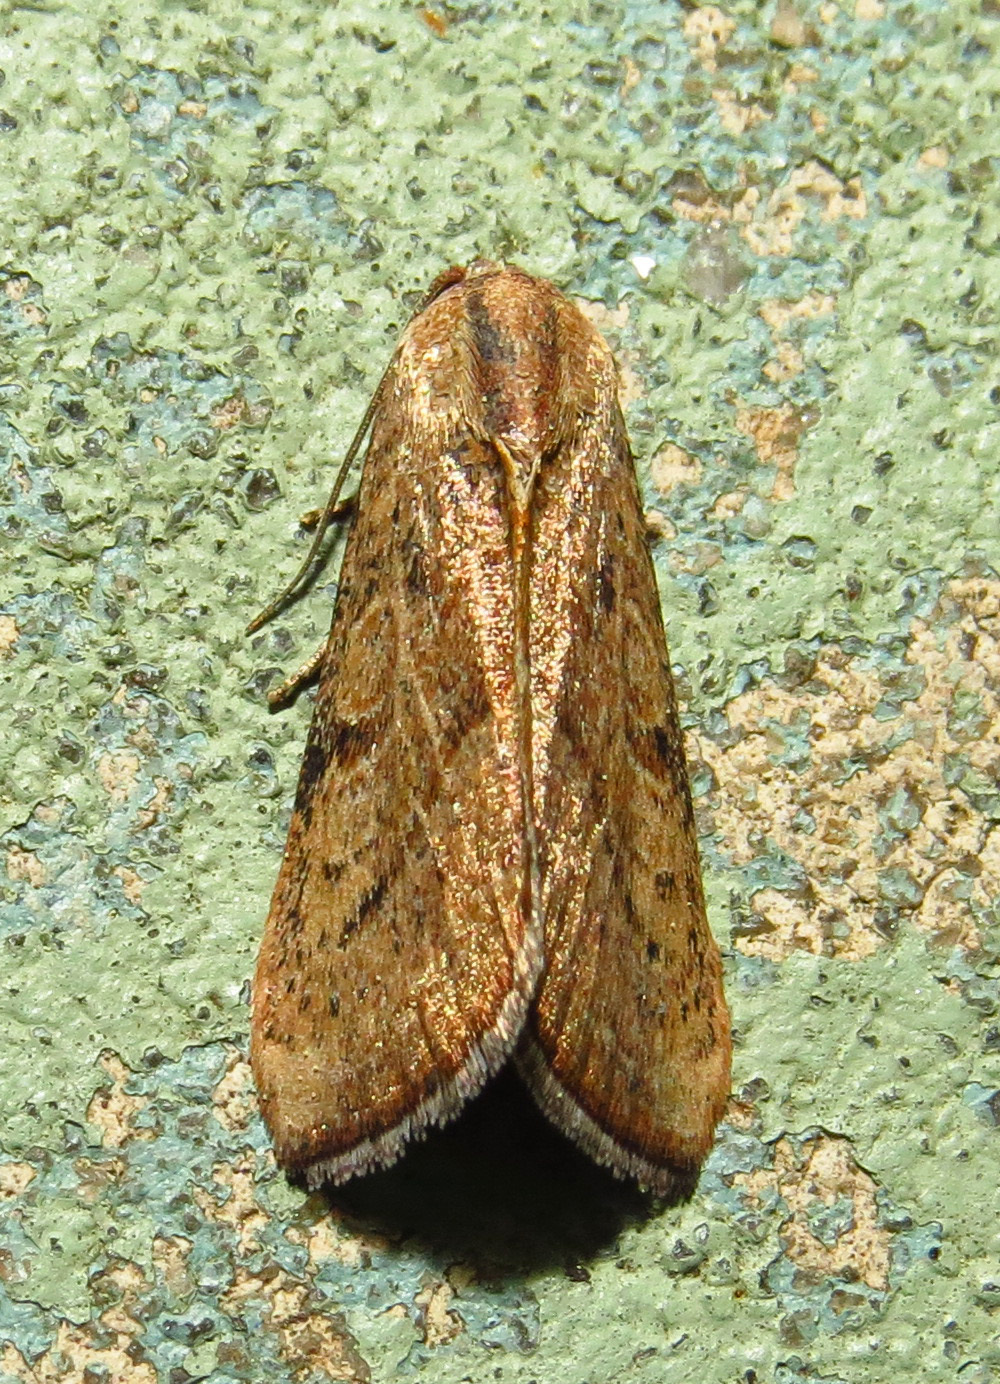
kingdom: Animalia
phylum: Arthropoda
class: Insecta
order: Lepidoptera
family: Noctuidae
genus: Galgula
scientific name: Galgula partita
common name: Wedgeling
